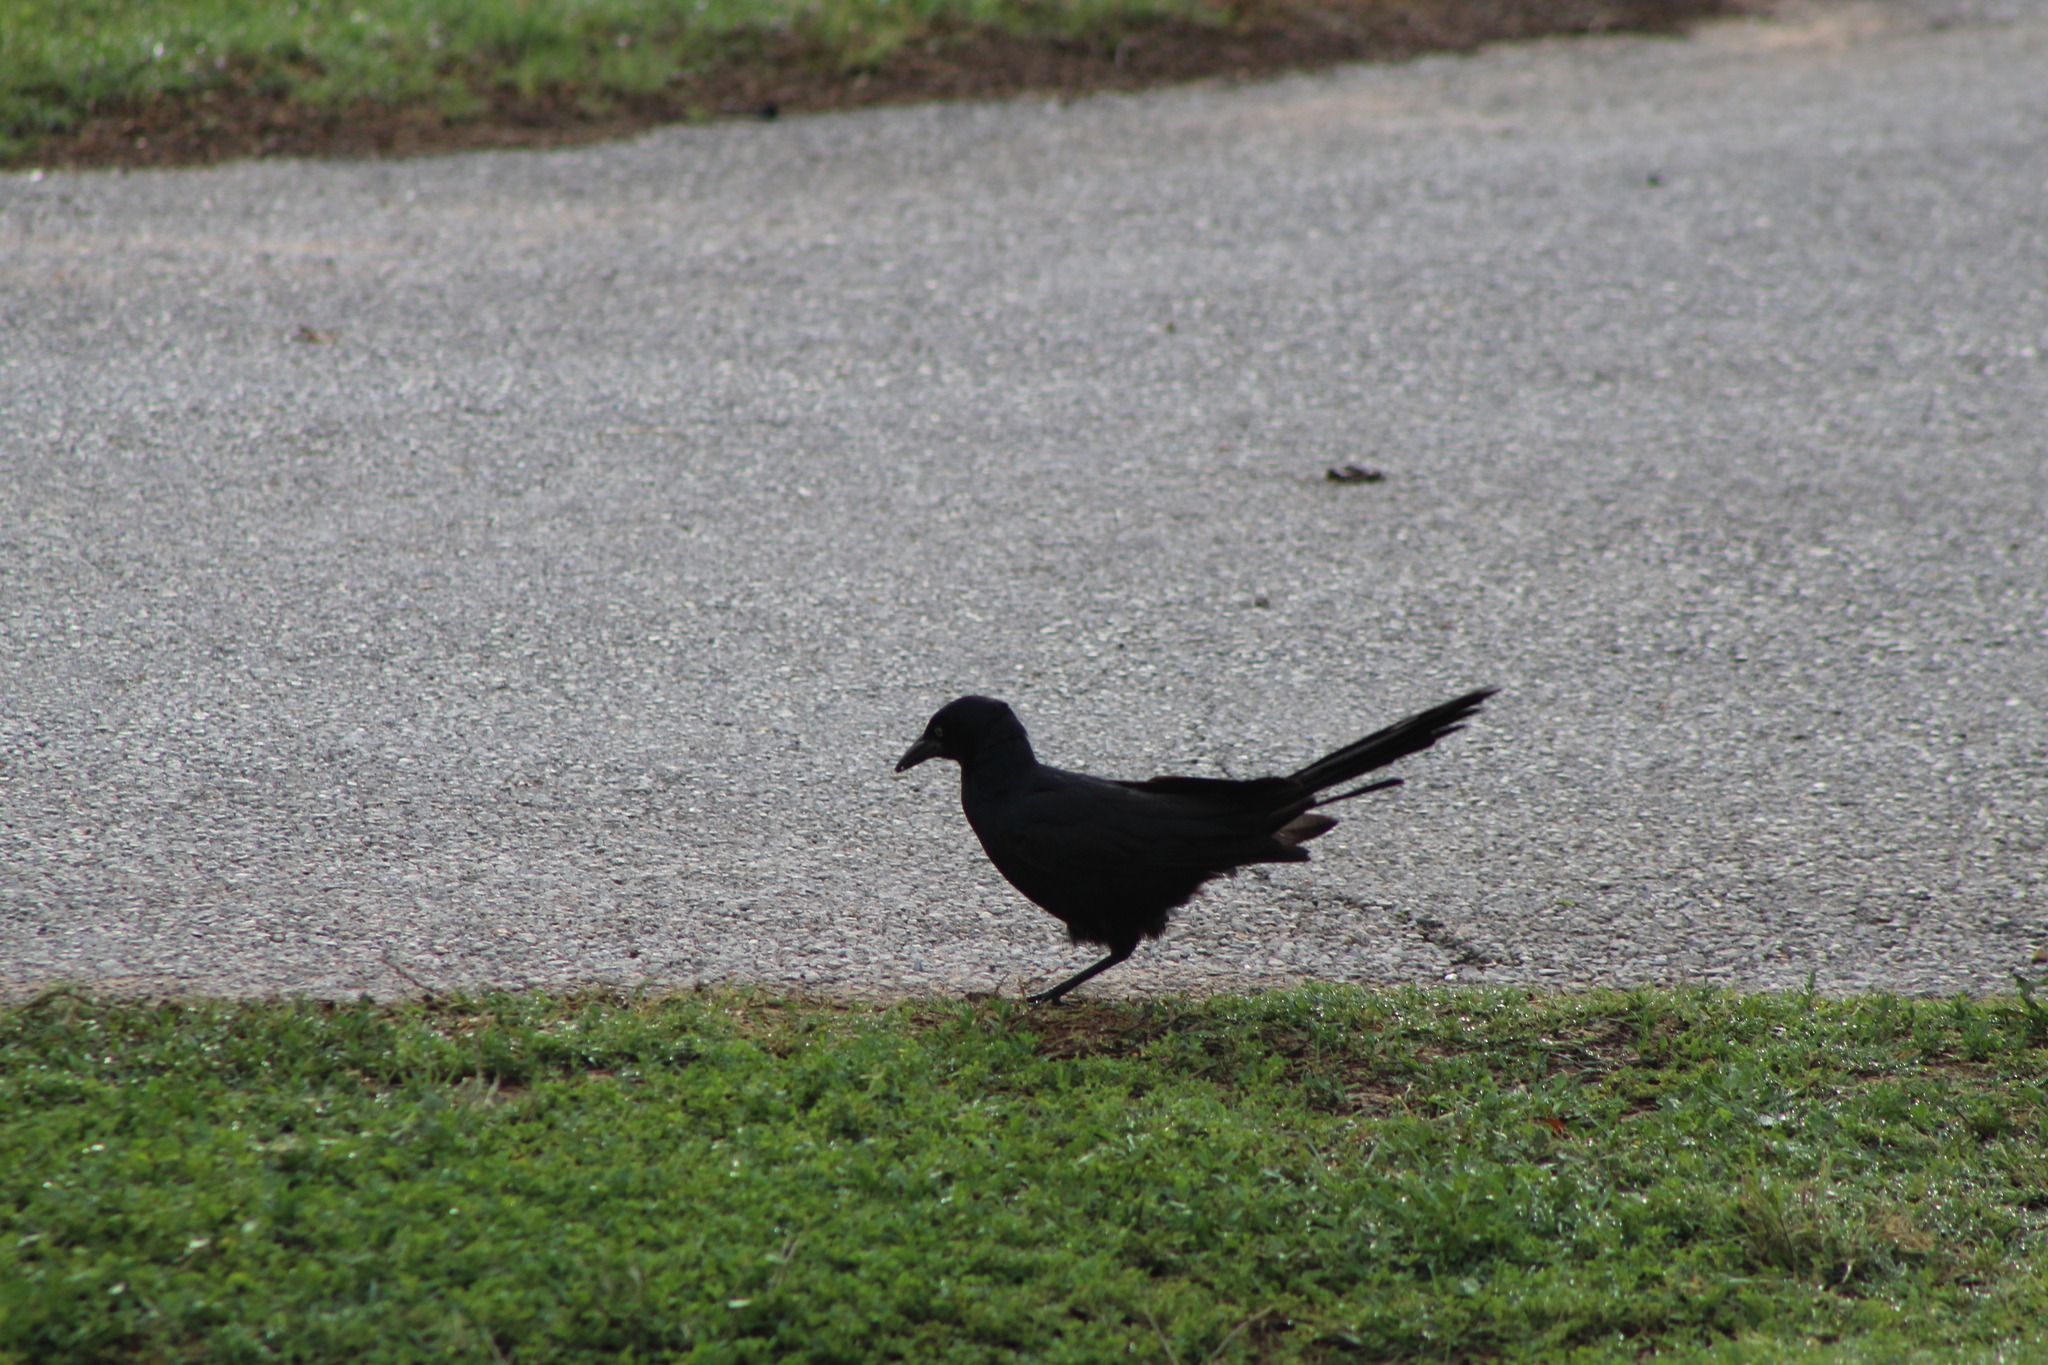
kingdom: Animalia
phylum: Chordata
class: Aves
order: Passeriformes
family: Icteridae
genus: Quiscalus
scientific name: Quiscalus mexicanus
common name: Great-tailed grackle
